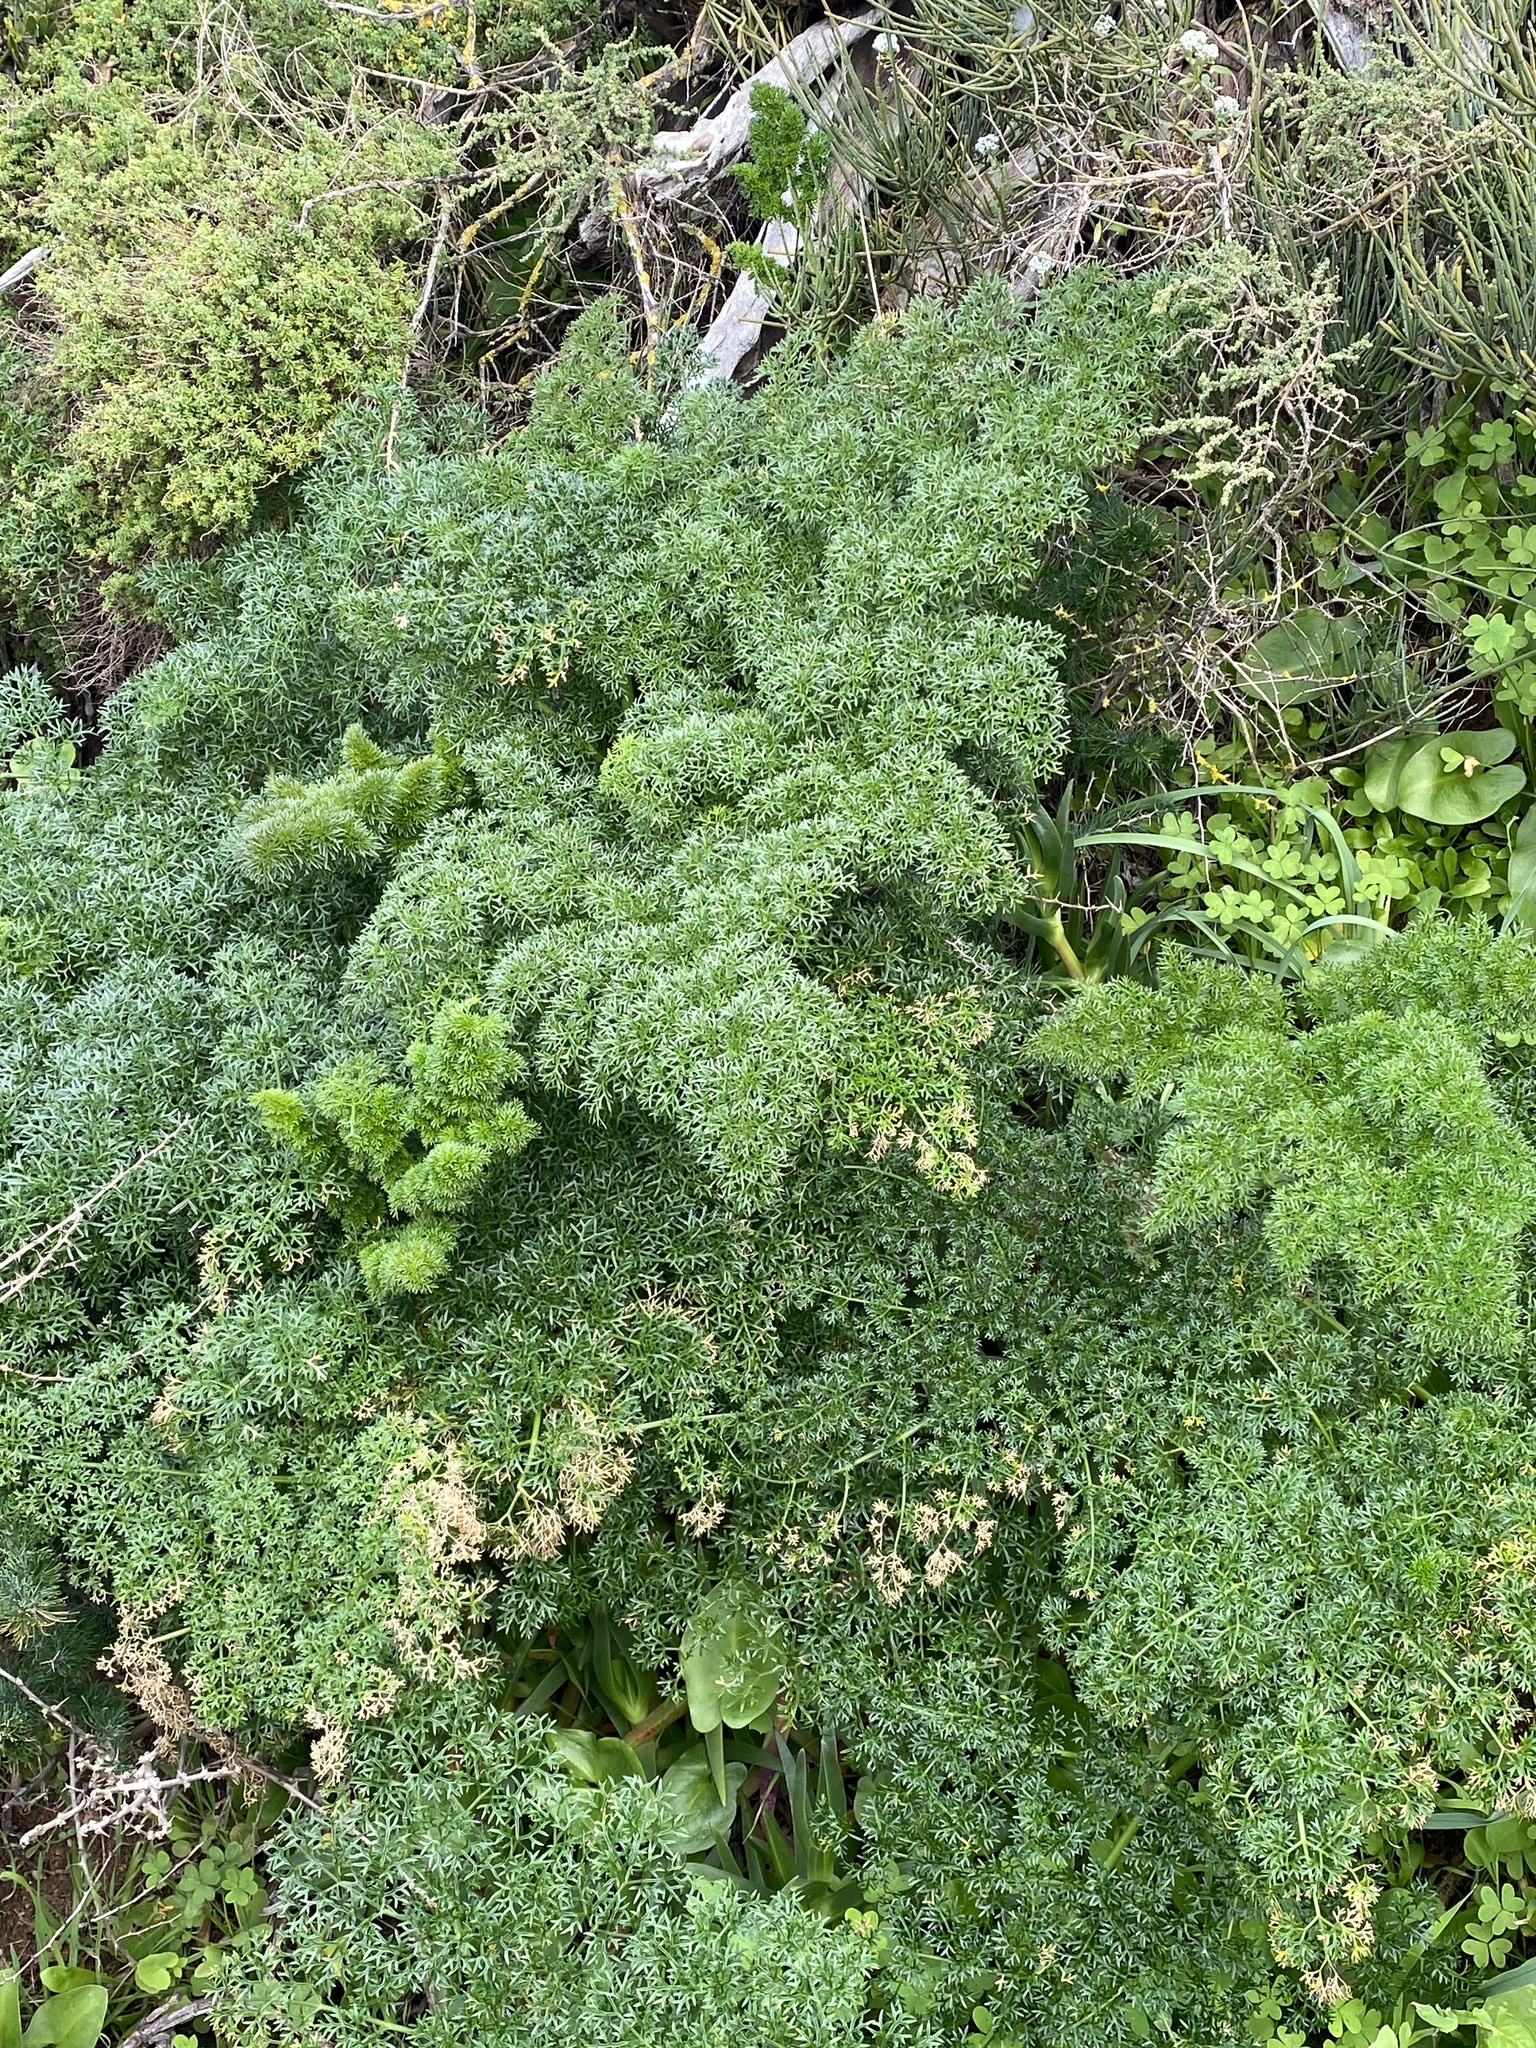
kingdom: Plantae
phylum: Tracheophyta
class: Magnoliopsida
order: Apiales
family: Apiaceae
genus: Ferula
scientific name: Ferula communis
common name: Giant fennel
